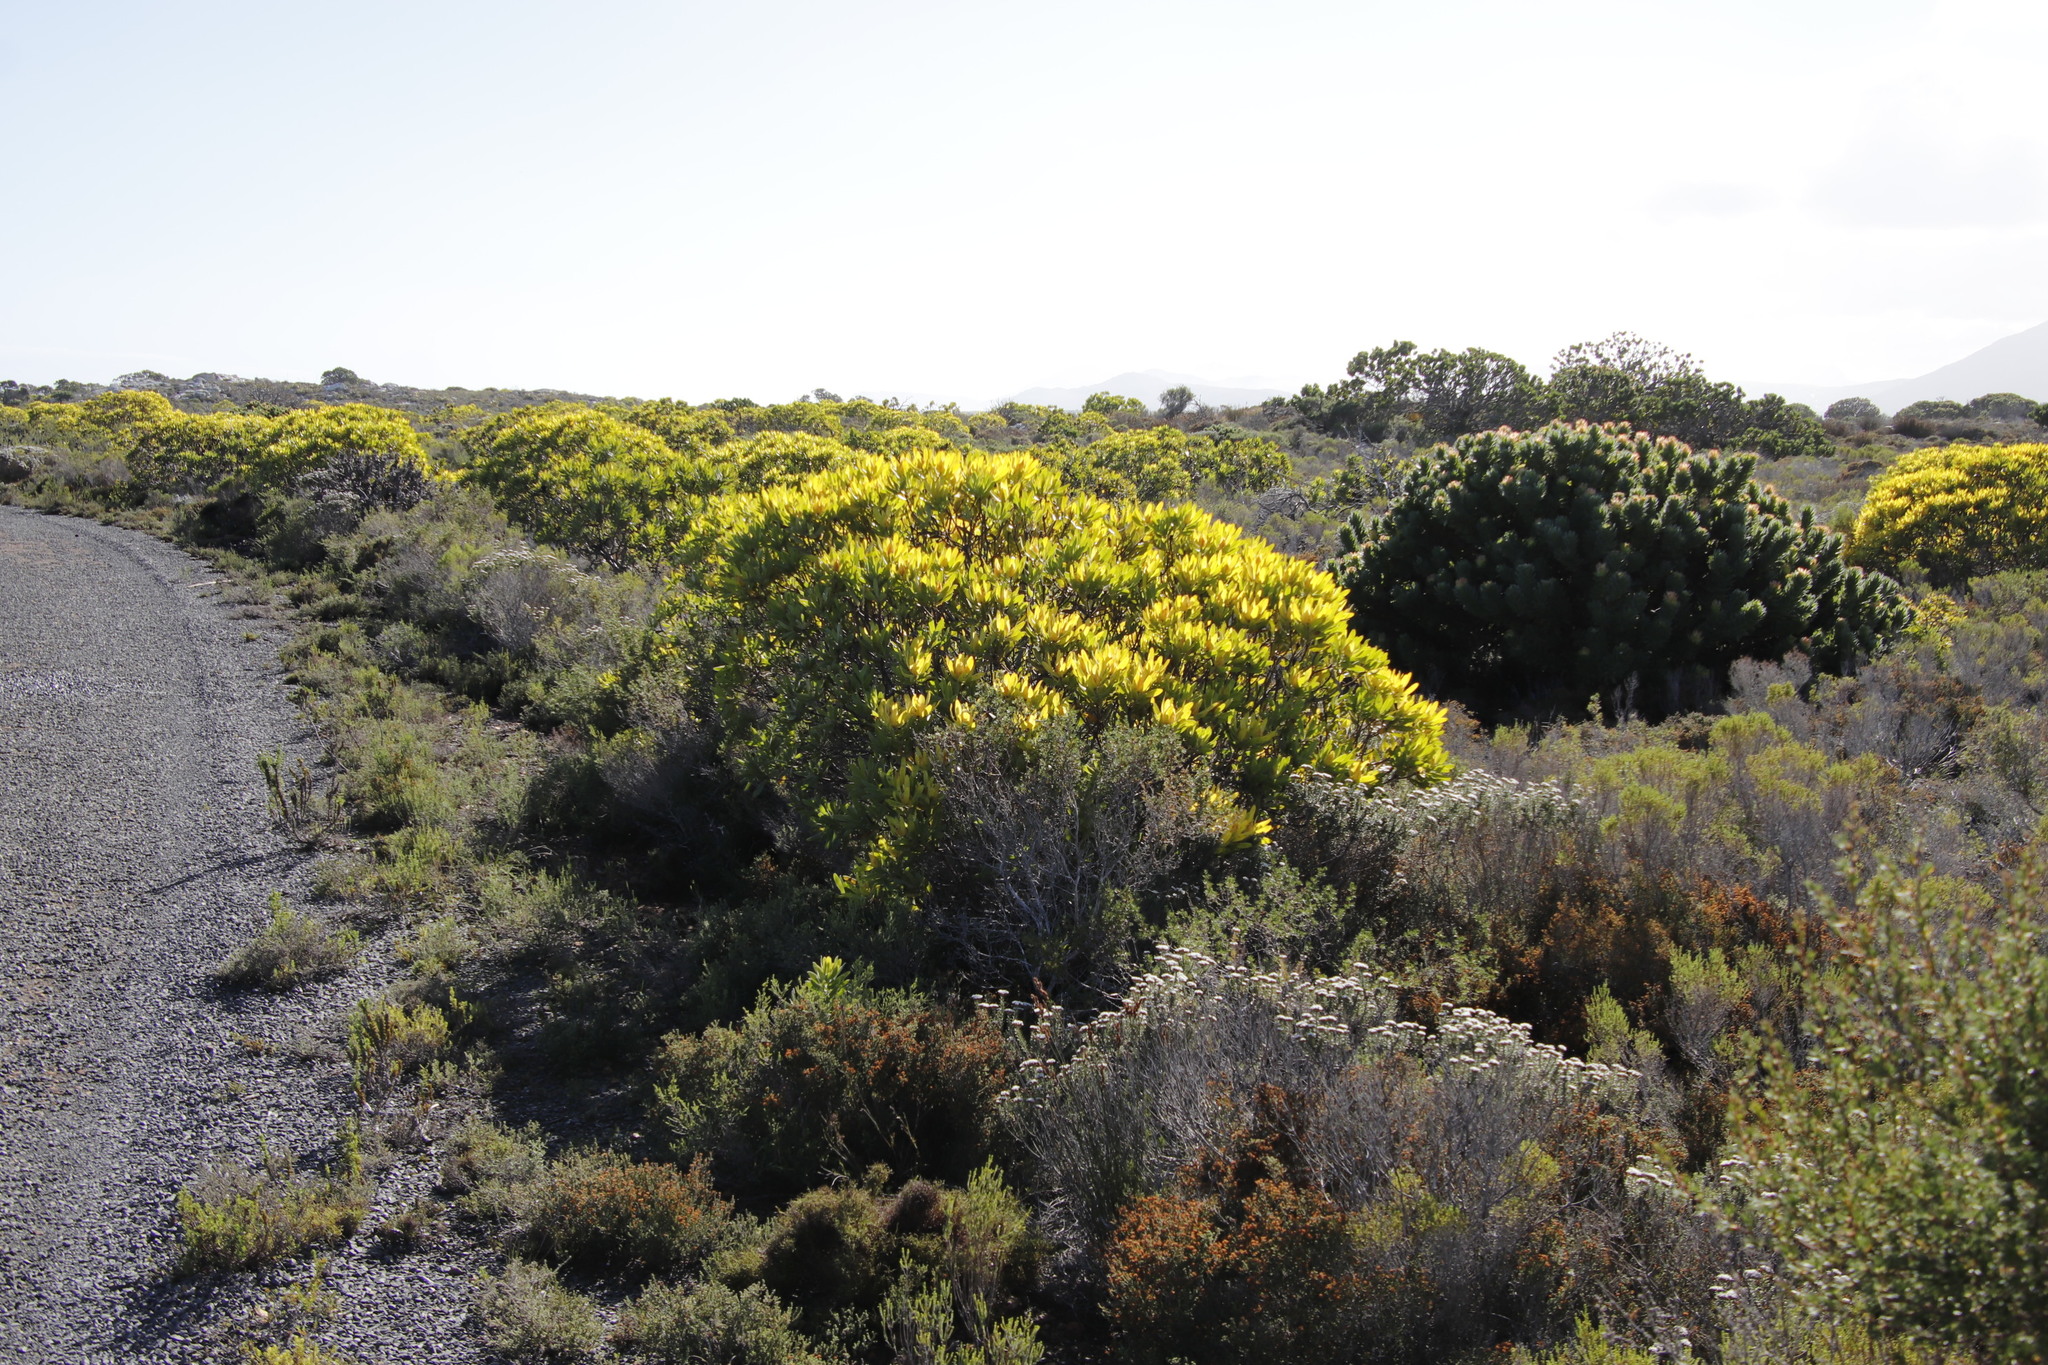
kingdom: Plantae
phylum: Tracheophyta
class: Magnoliopsida
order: Proteales
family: Proteaceae
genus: Leucadendron
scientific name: Leucadendron laureolum
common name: Golden sunshinebush
